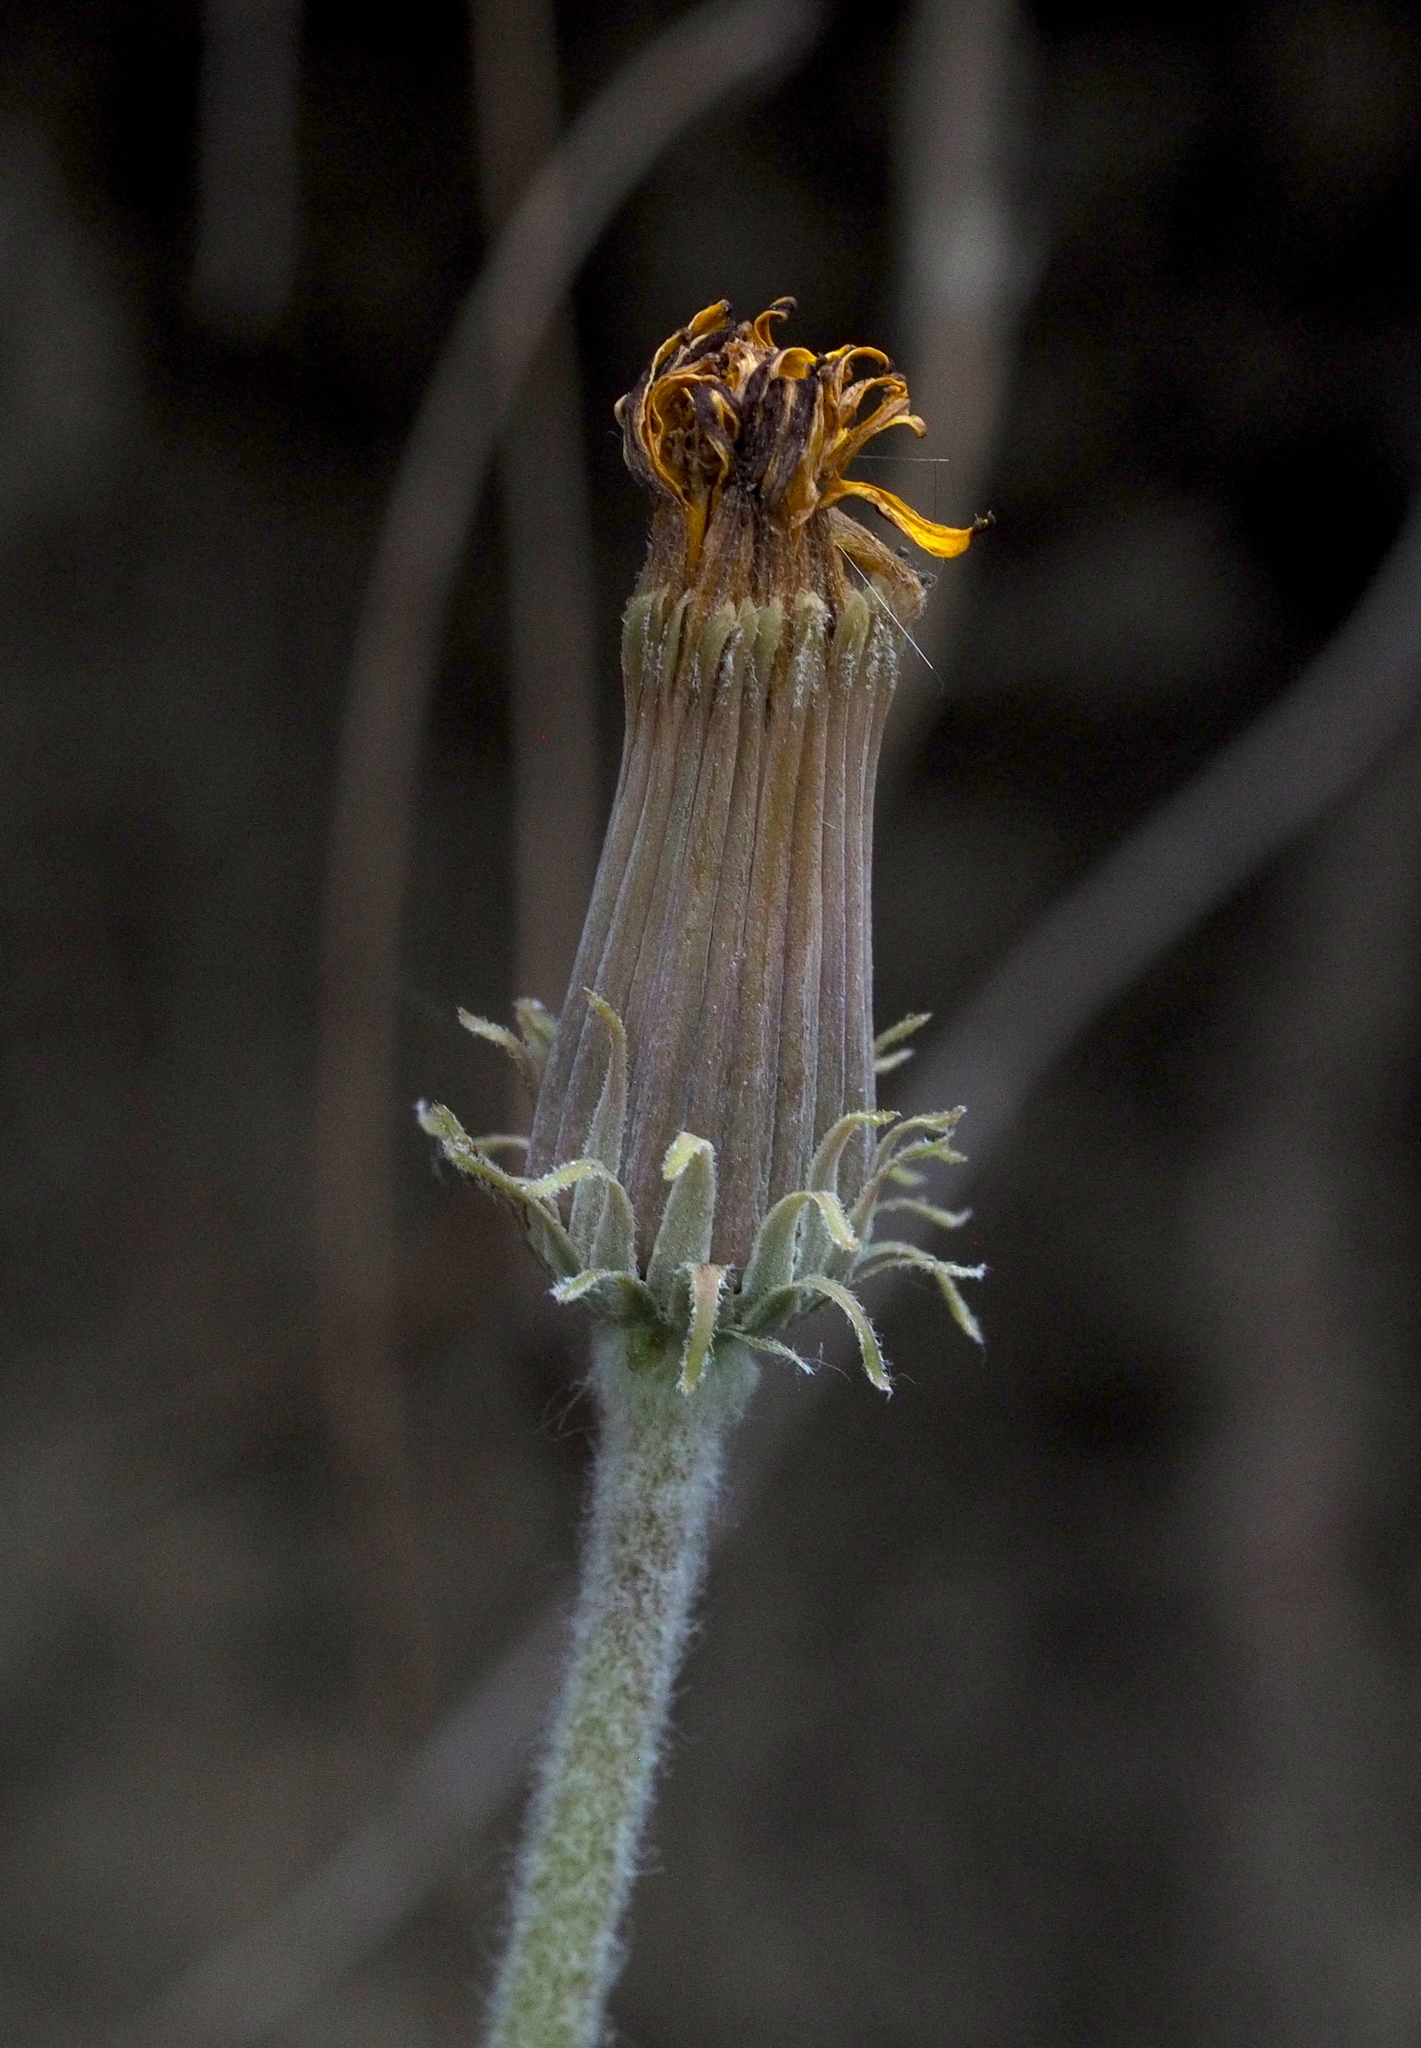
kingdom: Plantae
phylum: Tracheophyta
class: Magnoliopsida
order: Asterales
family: Asteraceae
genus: Taraxacum
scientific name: Taraxacum serotinum
